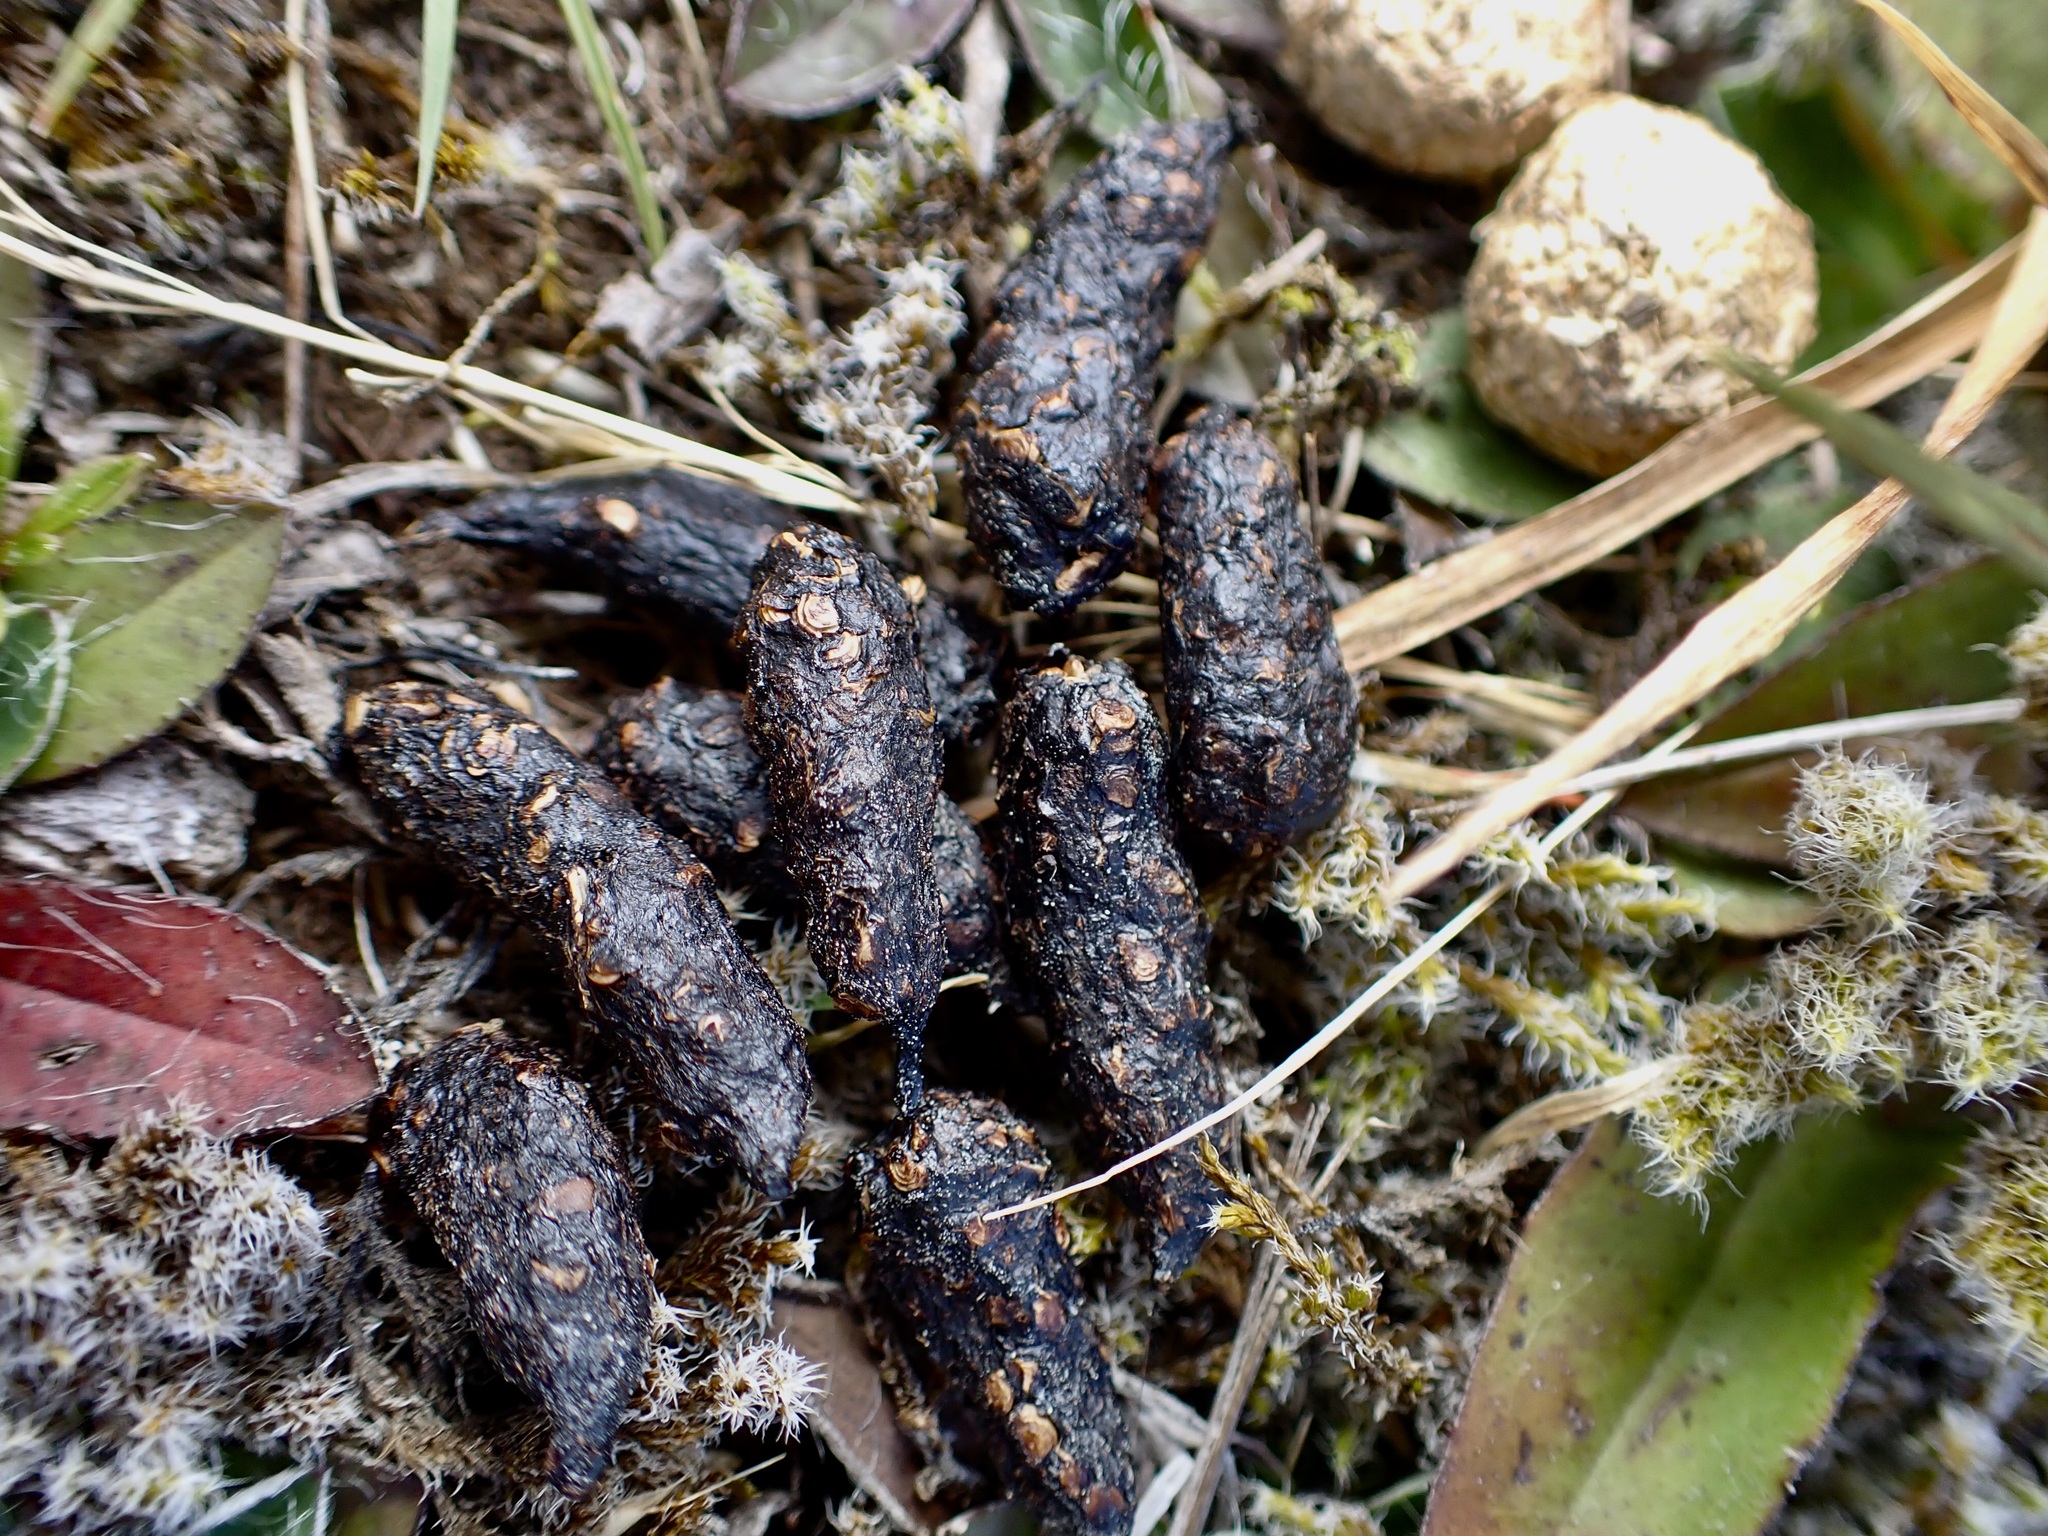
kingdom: Animalia
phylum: Chordata
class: Mammalia
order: Erinaceomorpha
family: Erinaceidae
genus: Erinaceus
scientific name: Erinaceus europaeus
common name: West european hedgehog
